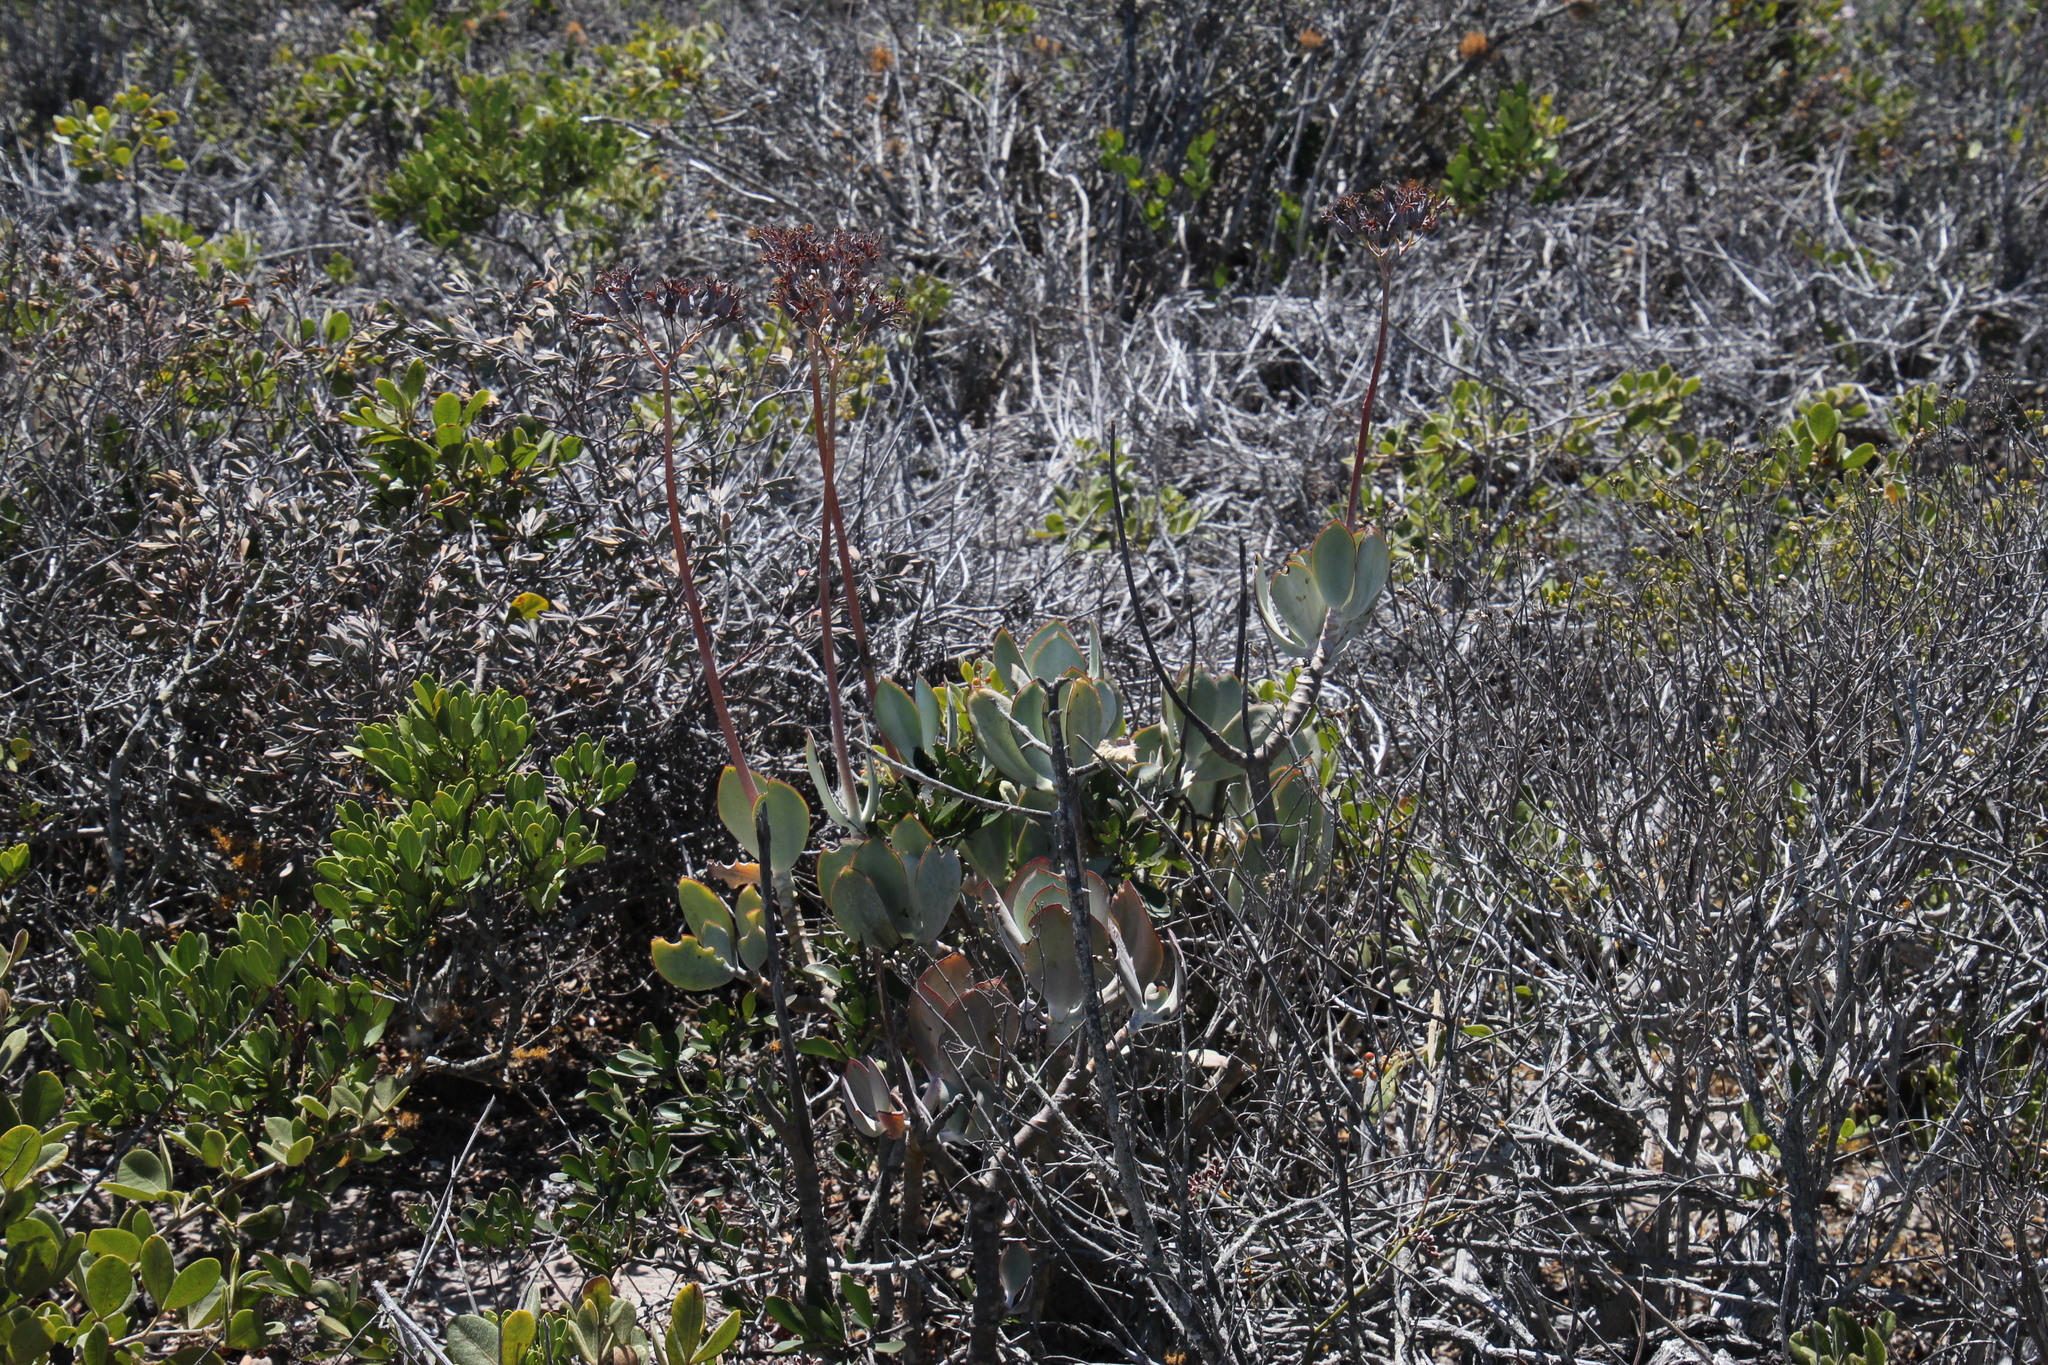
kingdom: Plantae
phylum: Tracheophyta
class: Magnoliopsida
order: Saxifragales
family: Crassulaceae
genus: Cotyledon
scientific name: Cotyledon orbiculata
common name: Pig's ear
